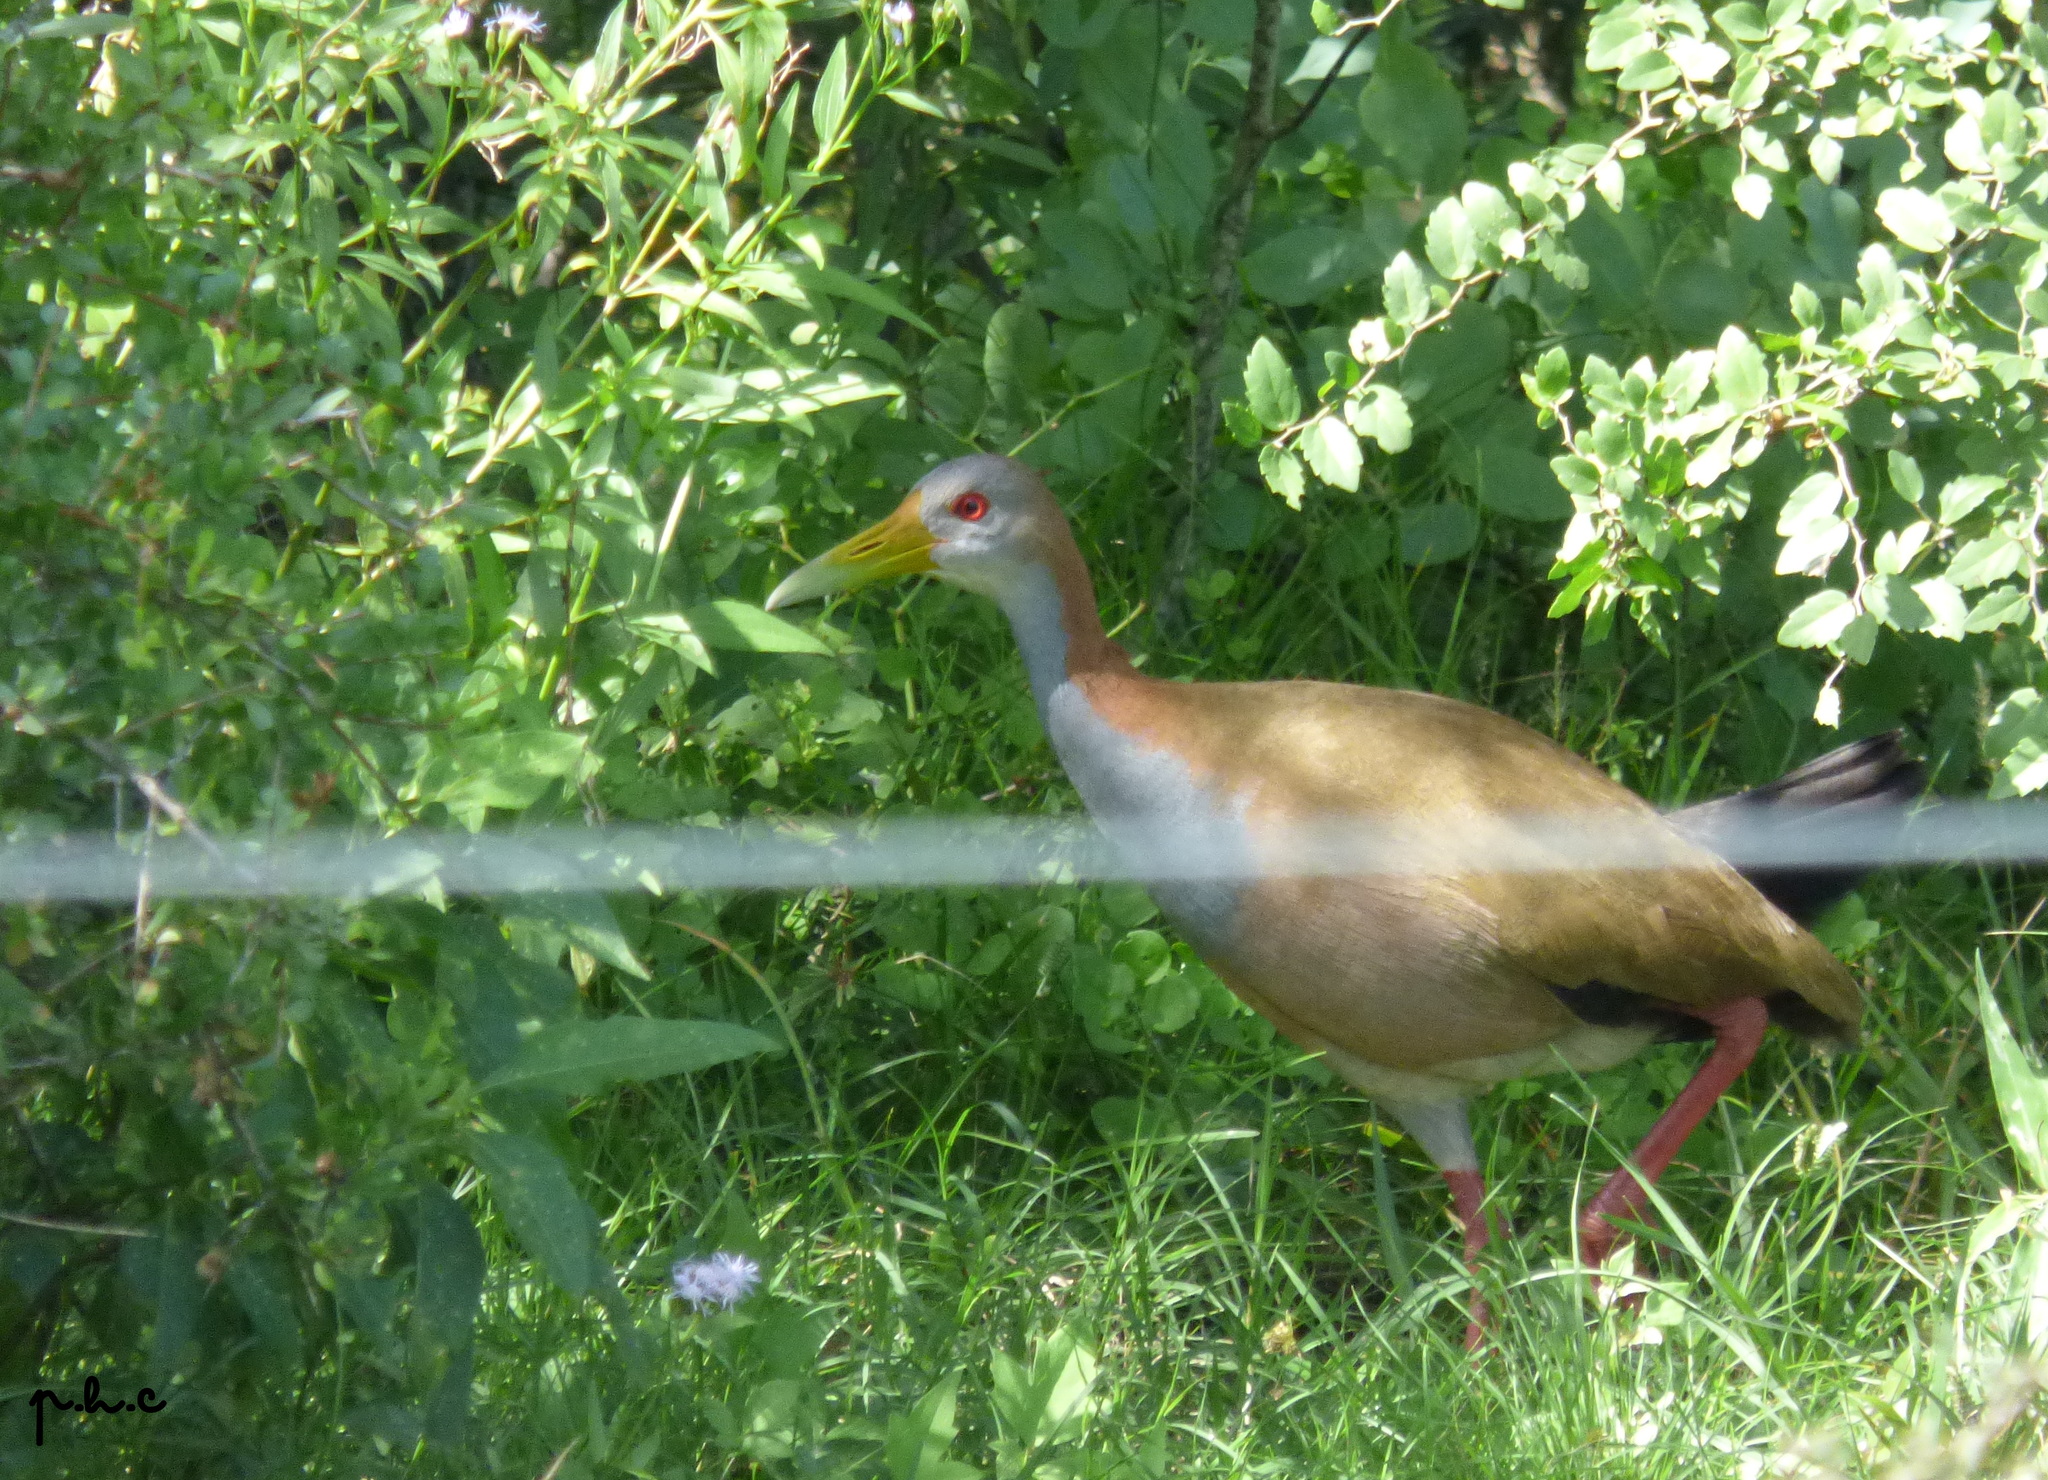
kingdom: Animalia
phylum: Chordata
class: Aves
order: Gruiformes
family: Rallidae
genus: Aramides
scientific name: Aramides ypecaha
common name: Giant wood rail
